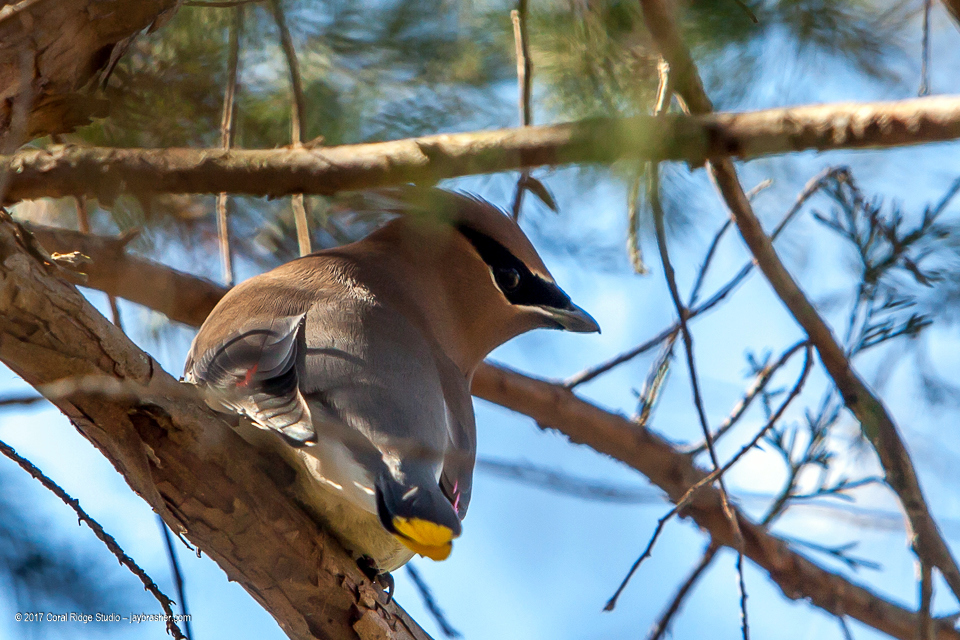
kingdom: Animalia
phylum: Chordata
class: Aves
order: Passeriformes
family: Bombycillidae
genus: Bombycilla
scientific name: Bombycilla cedrorum
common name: Cedar waxwing
